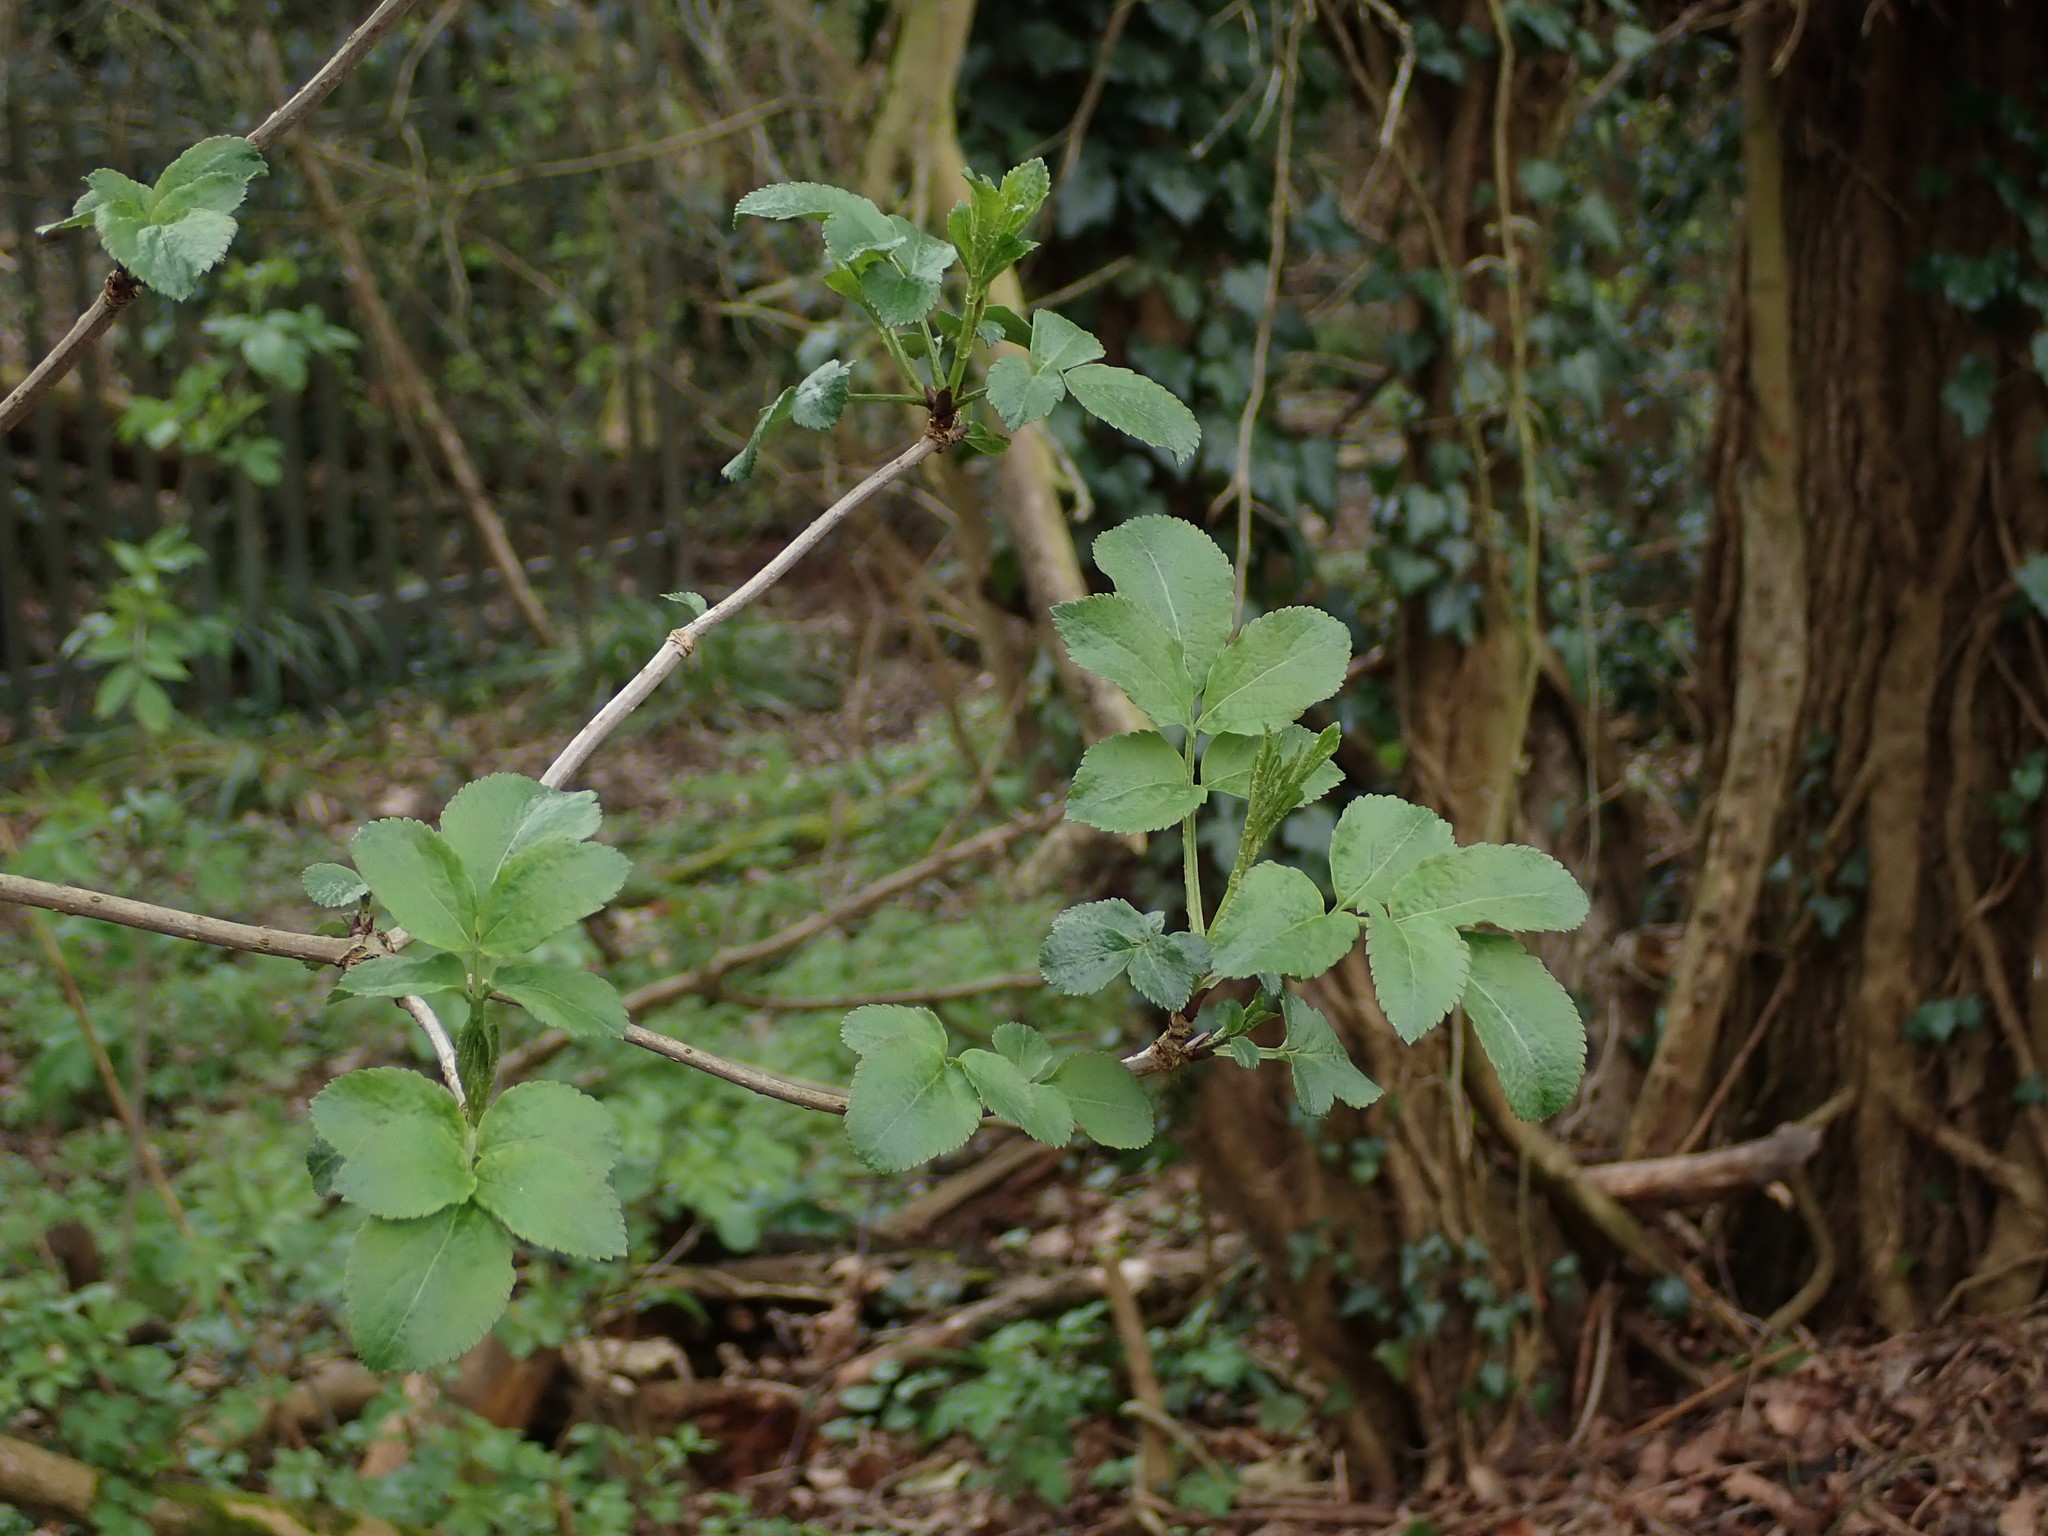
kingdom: Plantae
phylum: Tracheophyta
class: Magnoliopsida
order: Dipsacales
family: Viburnaceae
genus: Sambucus
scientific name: Sambucus nigra
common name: Elder
